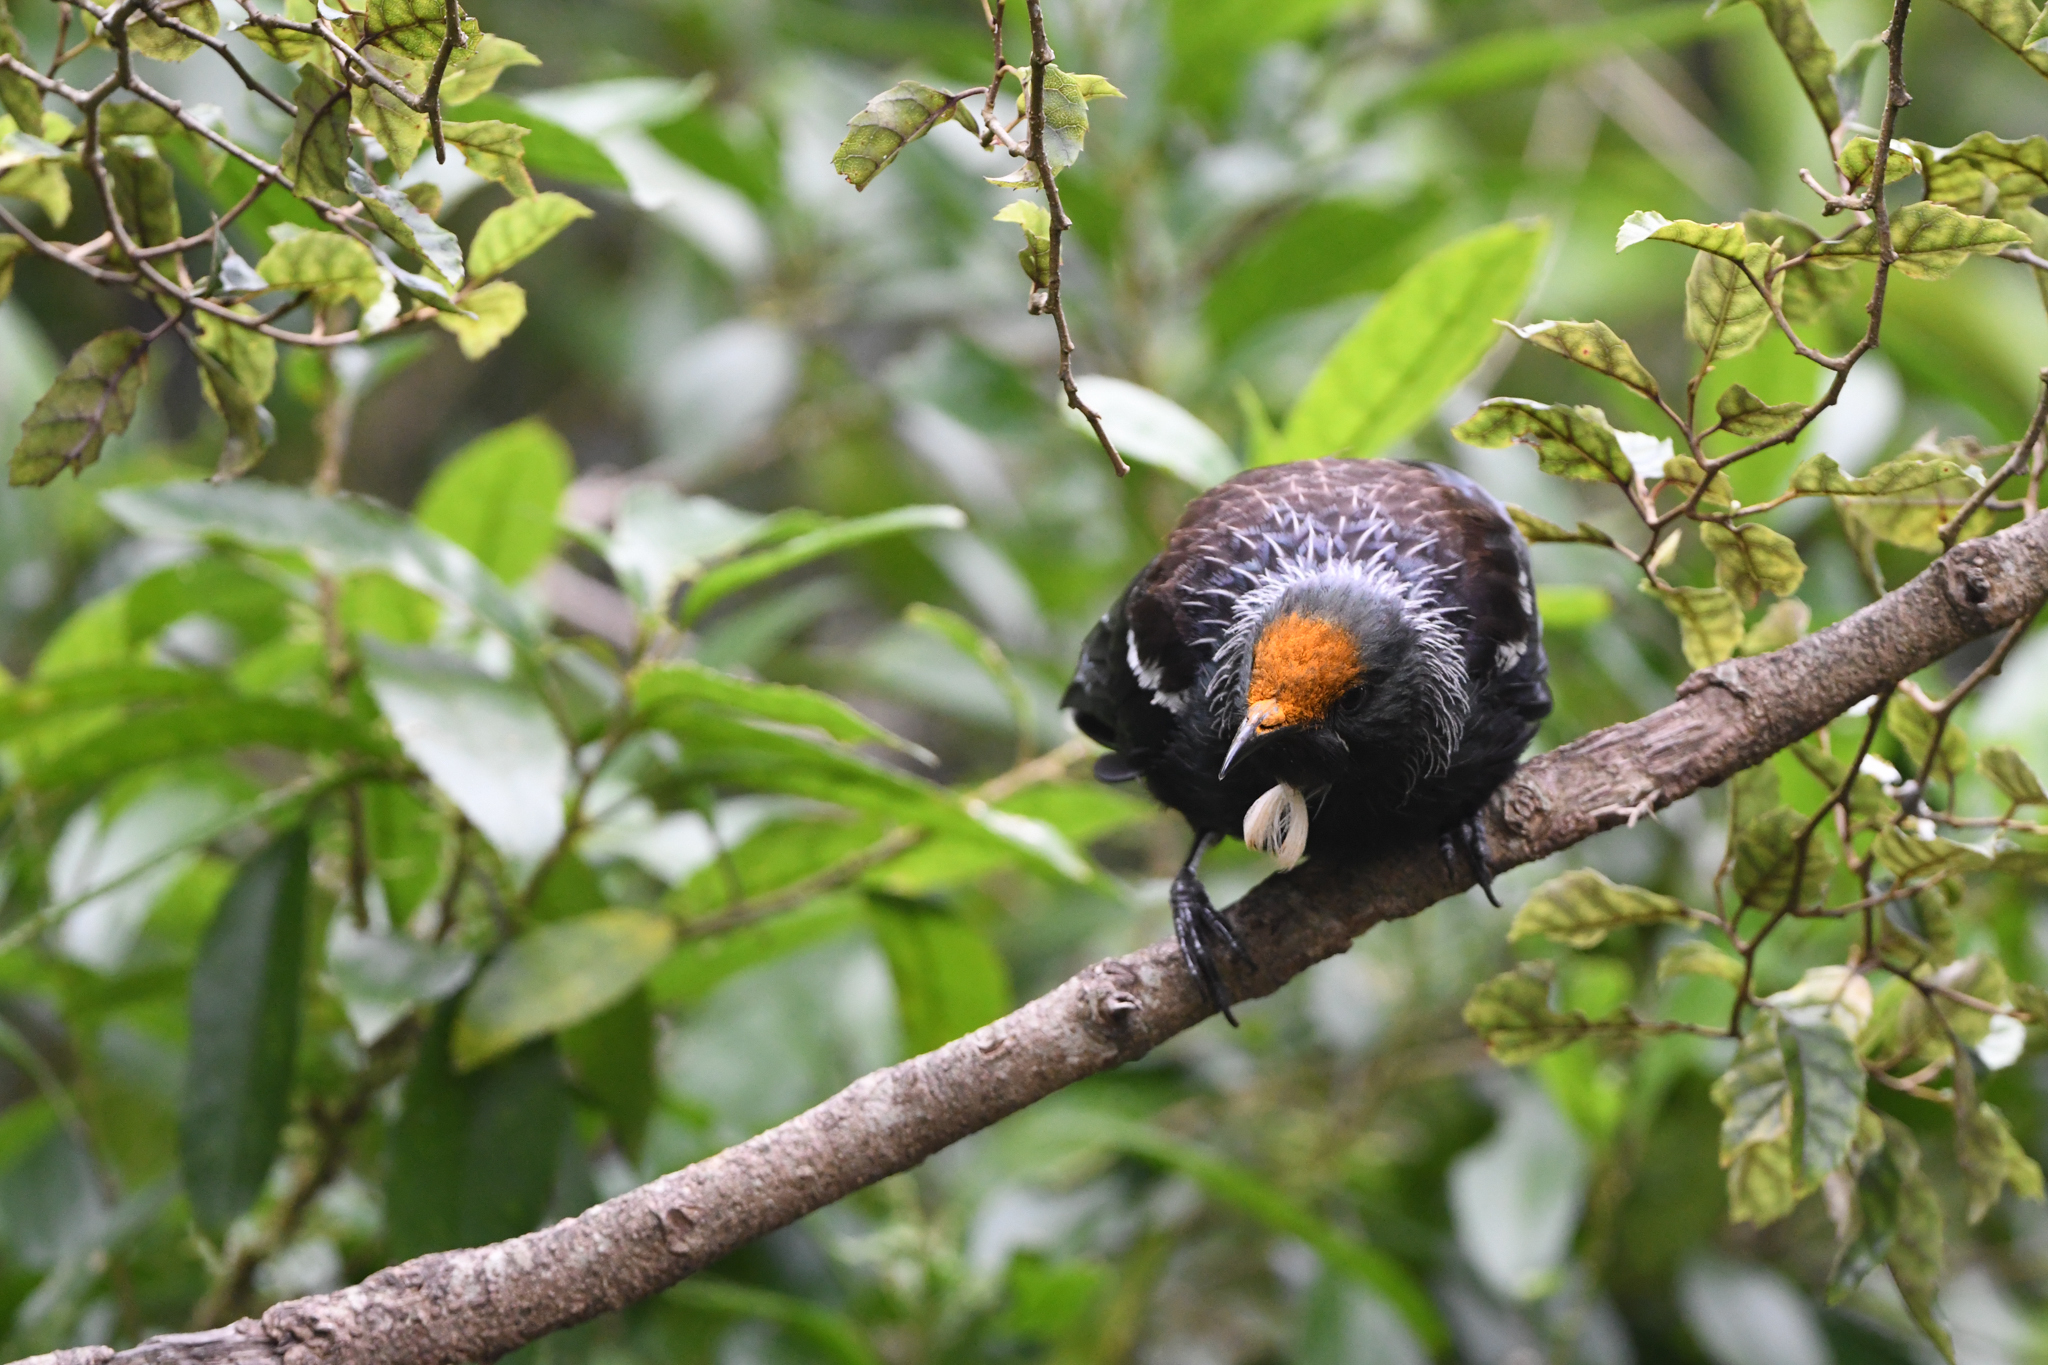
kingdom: Animalia
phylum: Chordata
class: Aves
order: Passeriformes
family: Meliphagidae
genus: Prosthemadera
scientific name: Prosthemadera novaeseelandiae
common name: Tui
